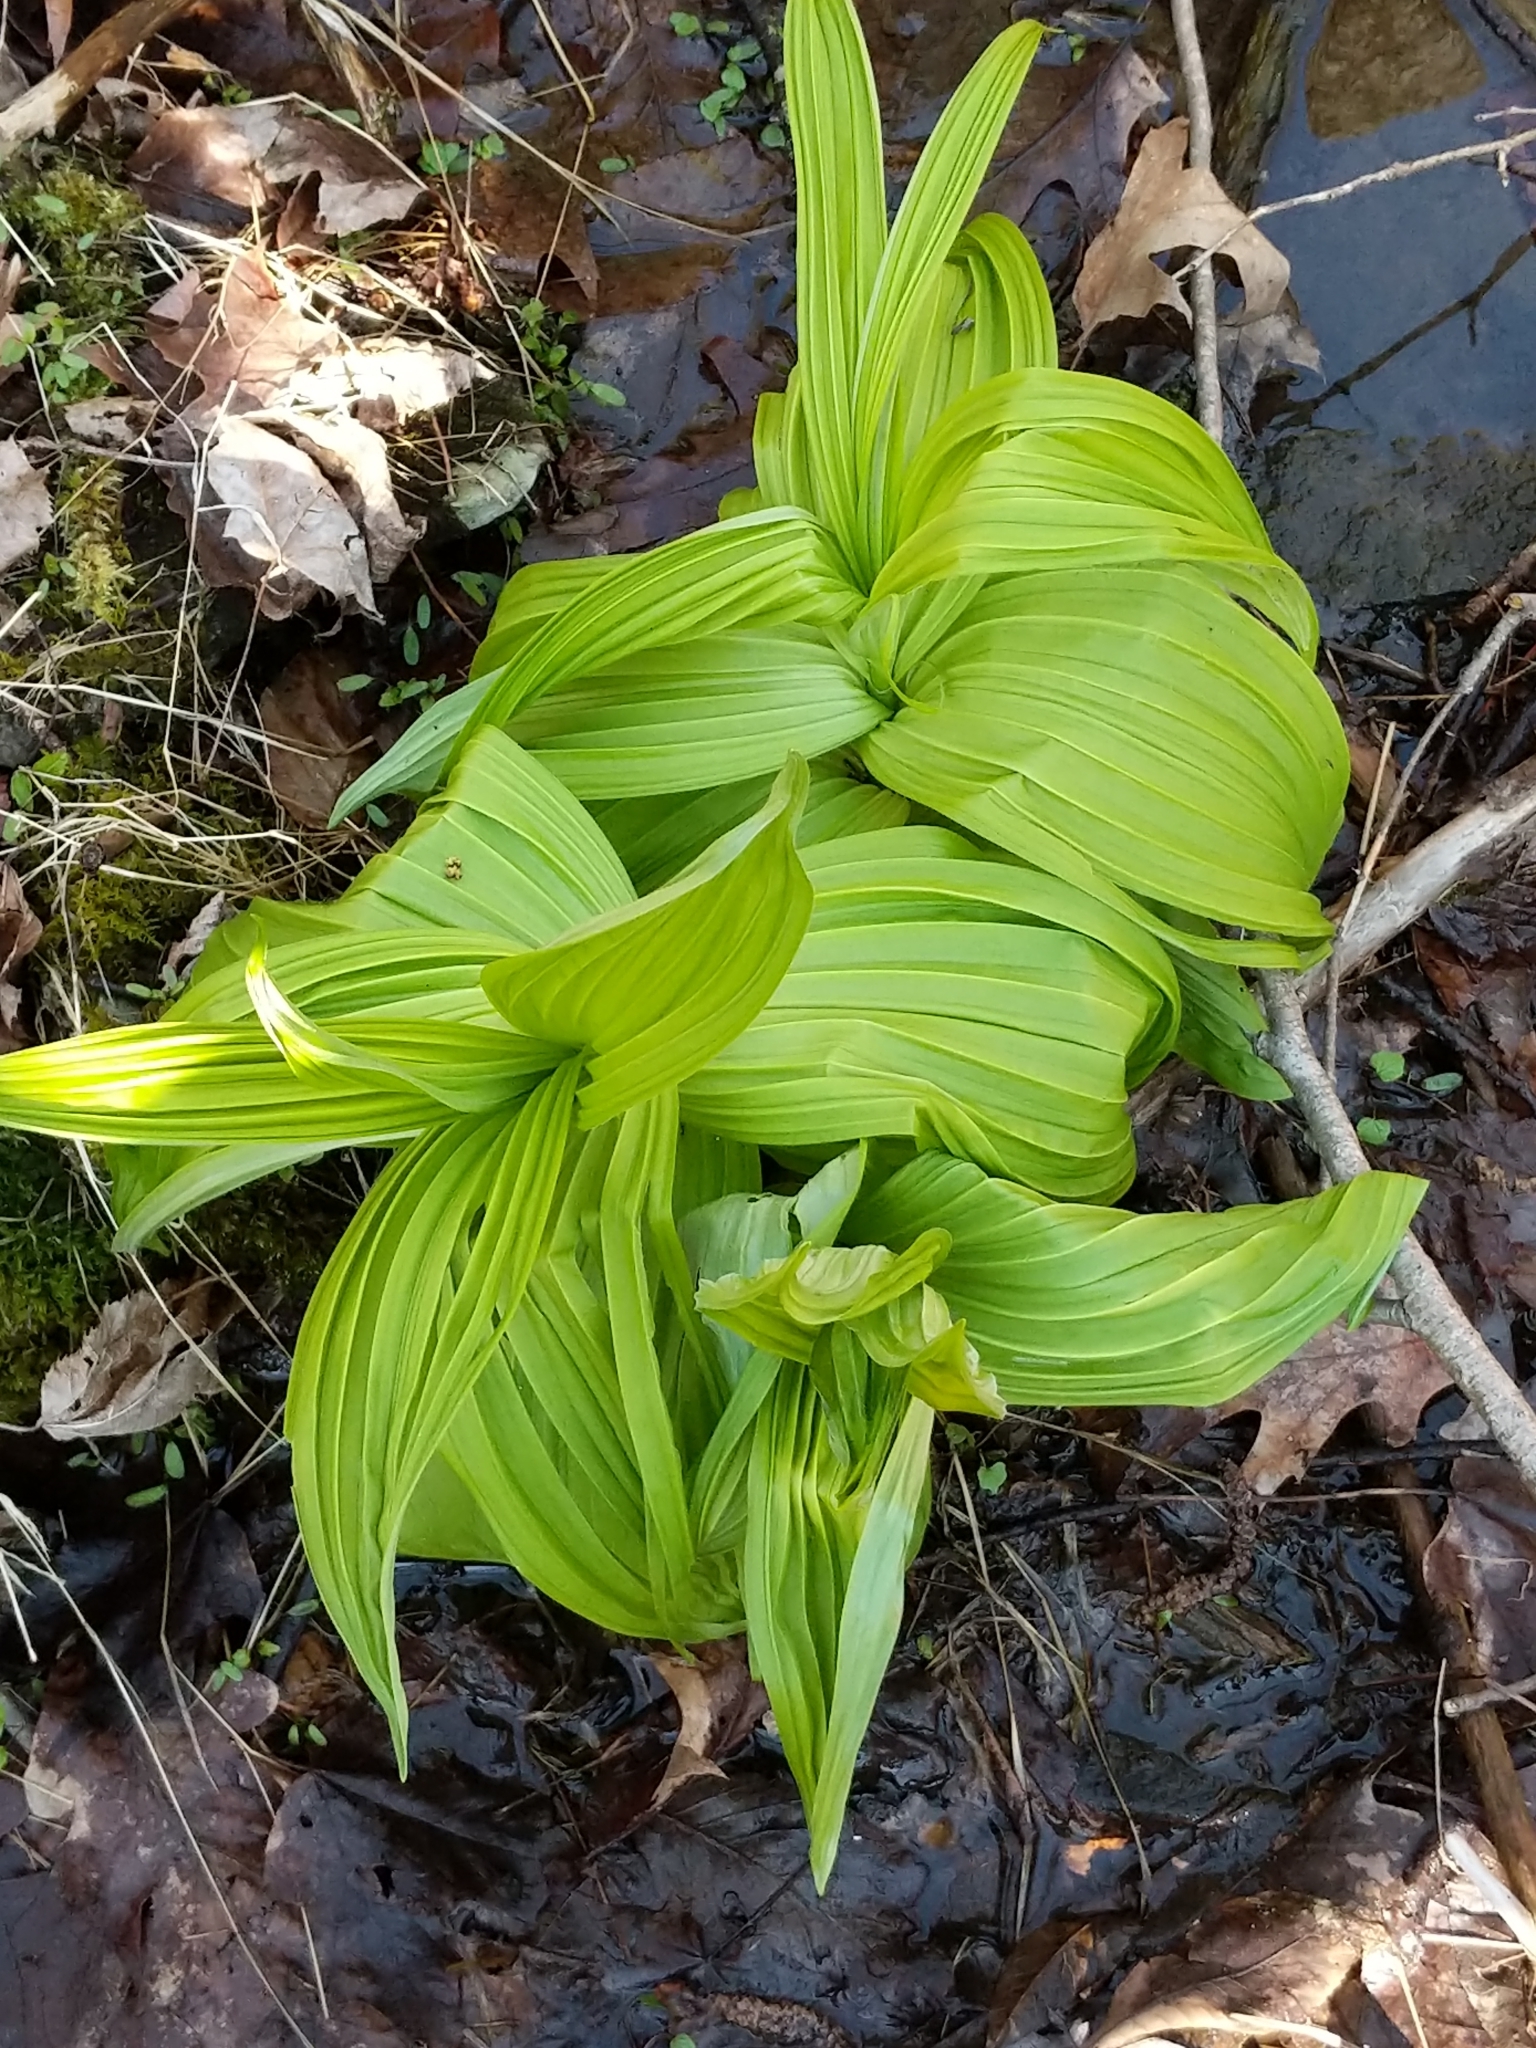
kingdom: Plantae
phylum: Tracheophyta
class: Liliopsida
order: Liliales
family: Melanthiaceae
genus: Veratrum
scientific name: Veratrum viride
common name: American false hellebore
